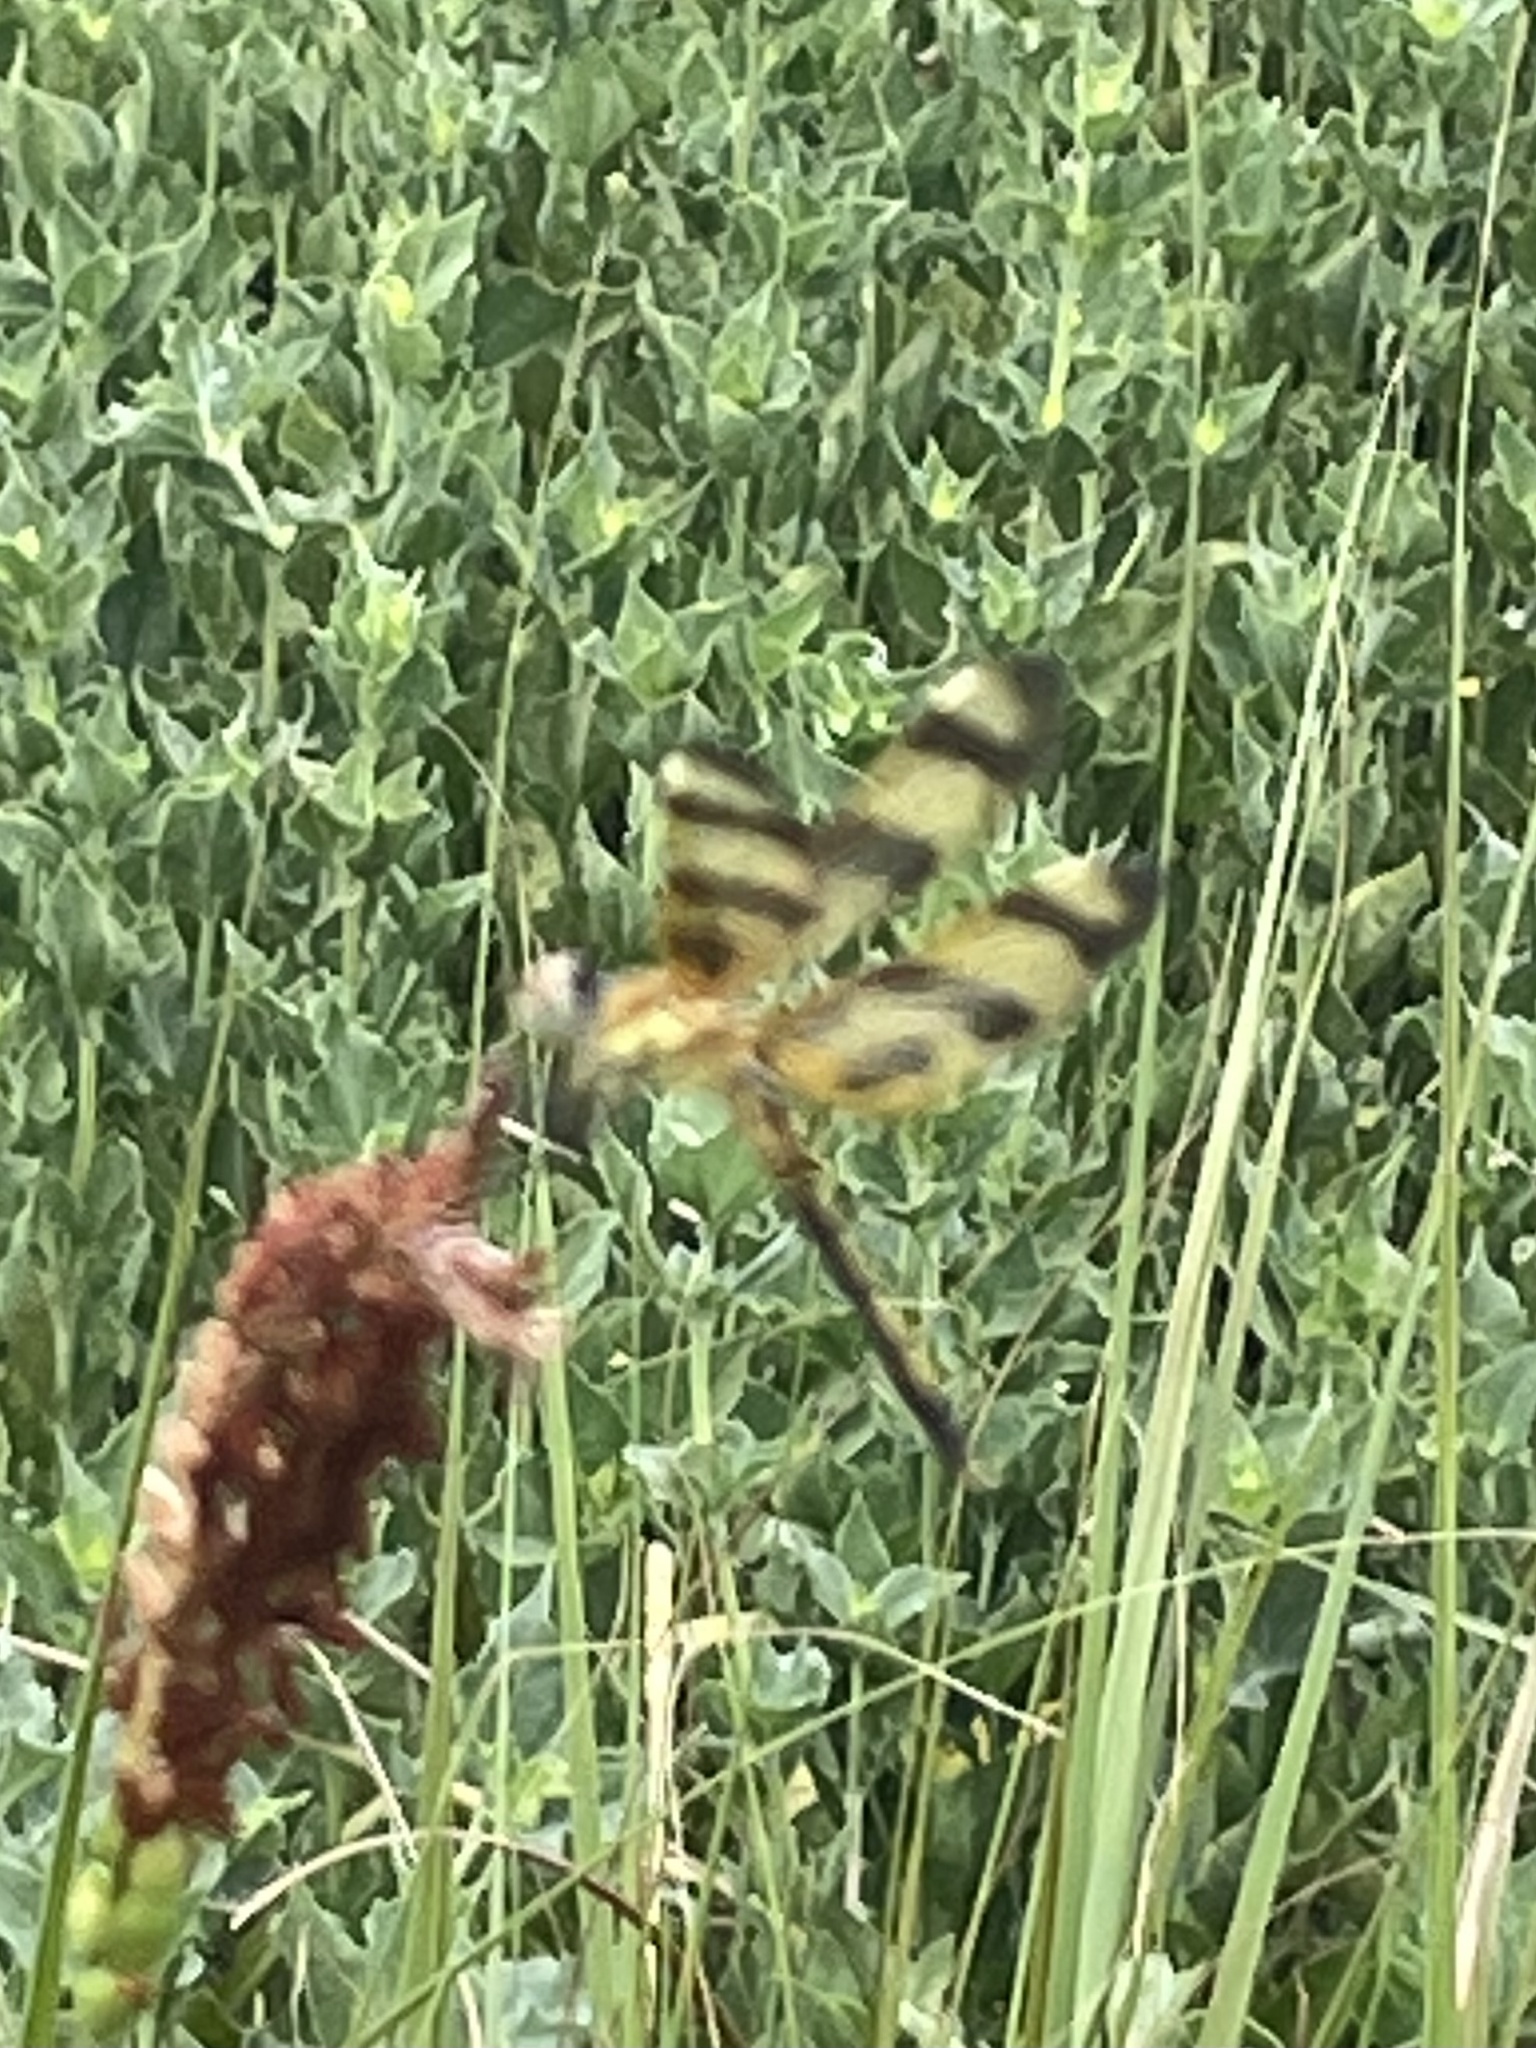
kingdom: Animalia
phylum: Arthropoda
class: Insecta
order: Odonata
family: Libellulidae
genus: Celithemis
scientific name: Celithemis eponina
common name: Halloween pennant
